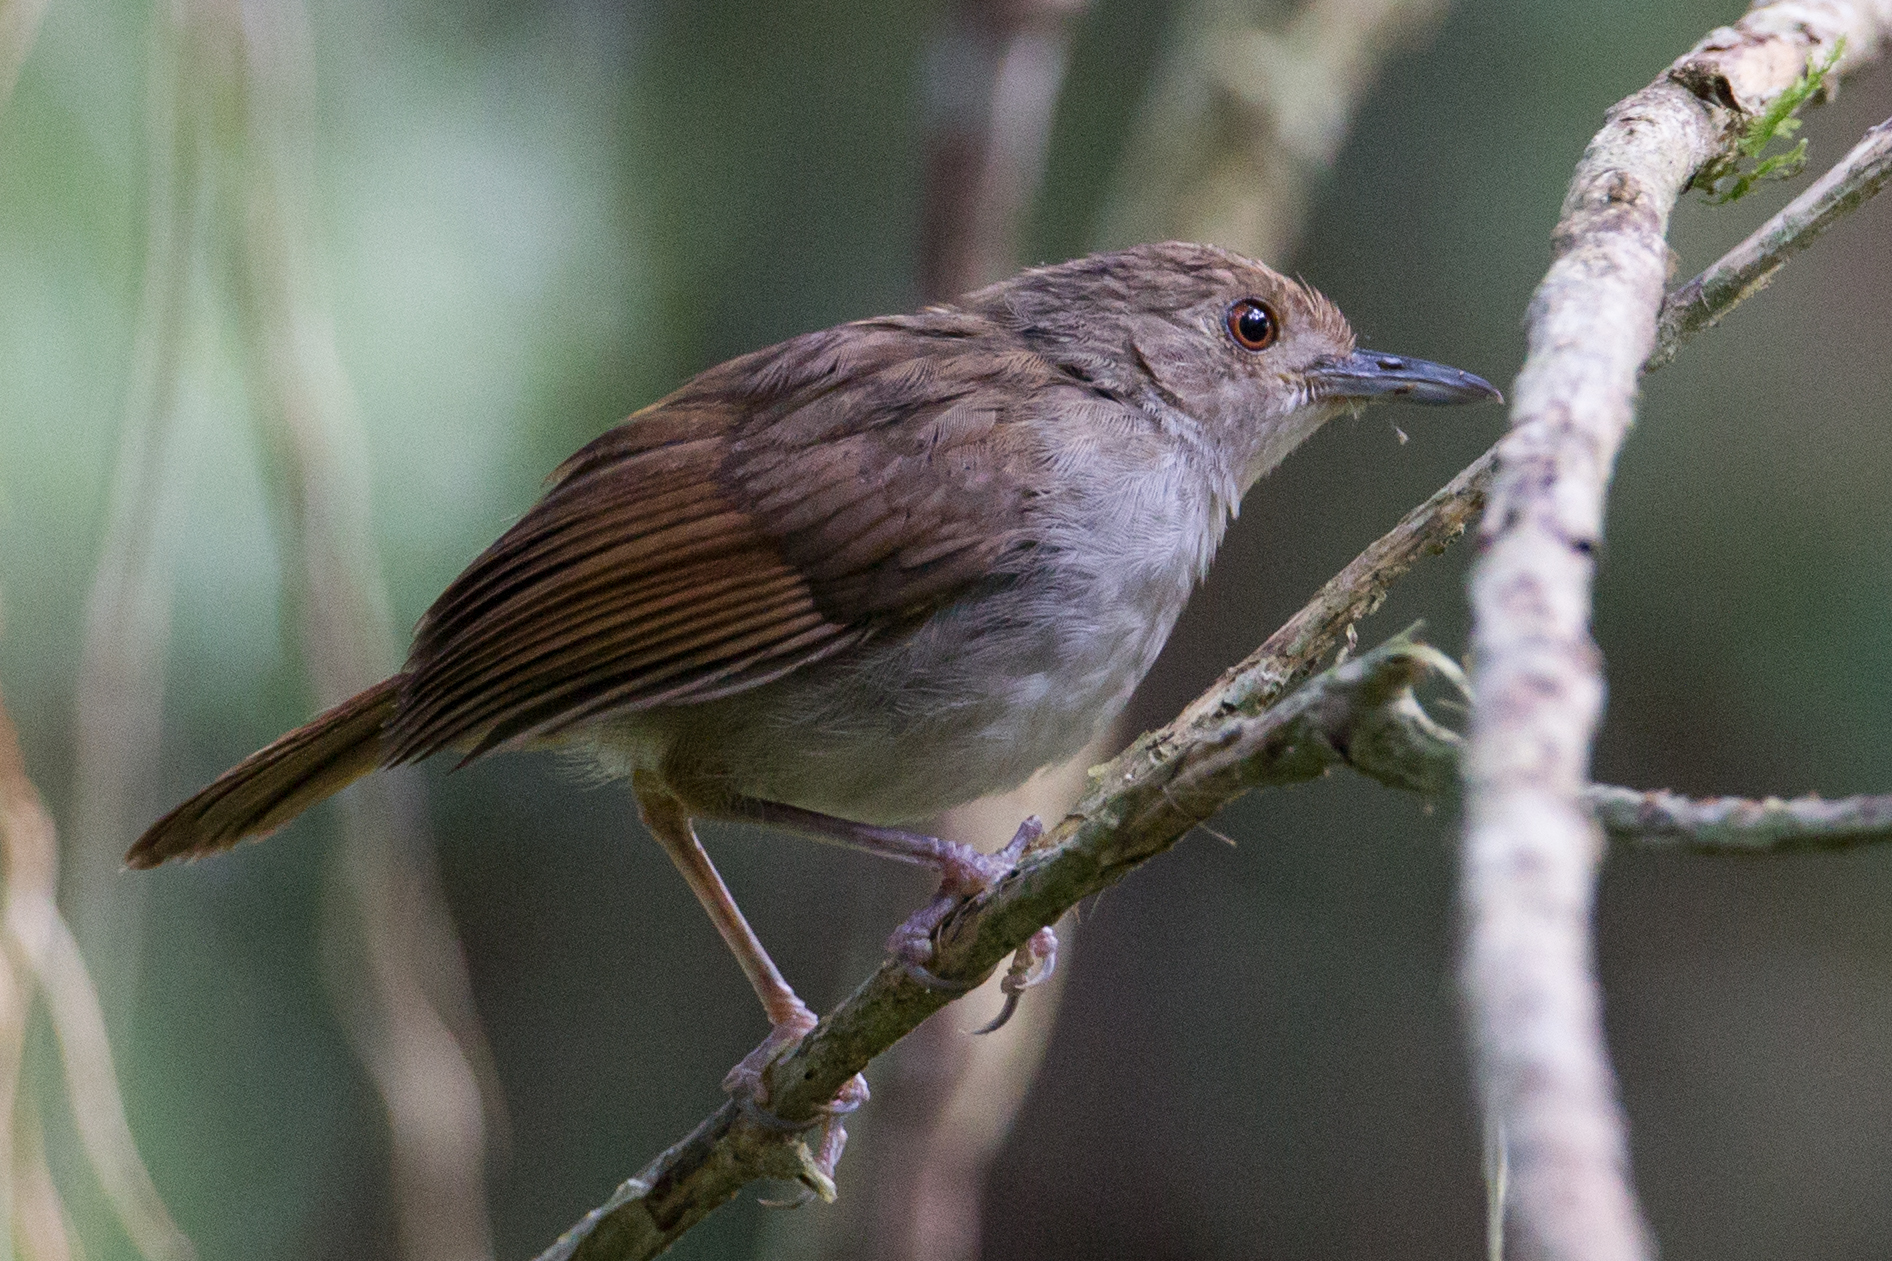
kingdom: Animalia
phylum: Chordata
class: Aves
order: Passeriformes
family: Pellorneidae
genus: Trichastoma
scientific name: Trichastoma celebense
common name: Sulawesi babbler
